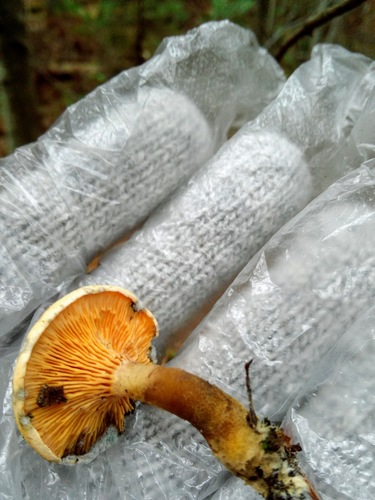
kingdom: Fungi
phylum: Basidiomycota
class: Agaricomycetes
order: Boletales
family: Hygrophoropsidaceae
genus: Hygrophoropsis
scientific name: Hygrophoropsis aurantiaca
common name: False chanterelle
